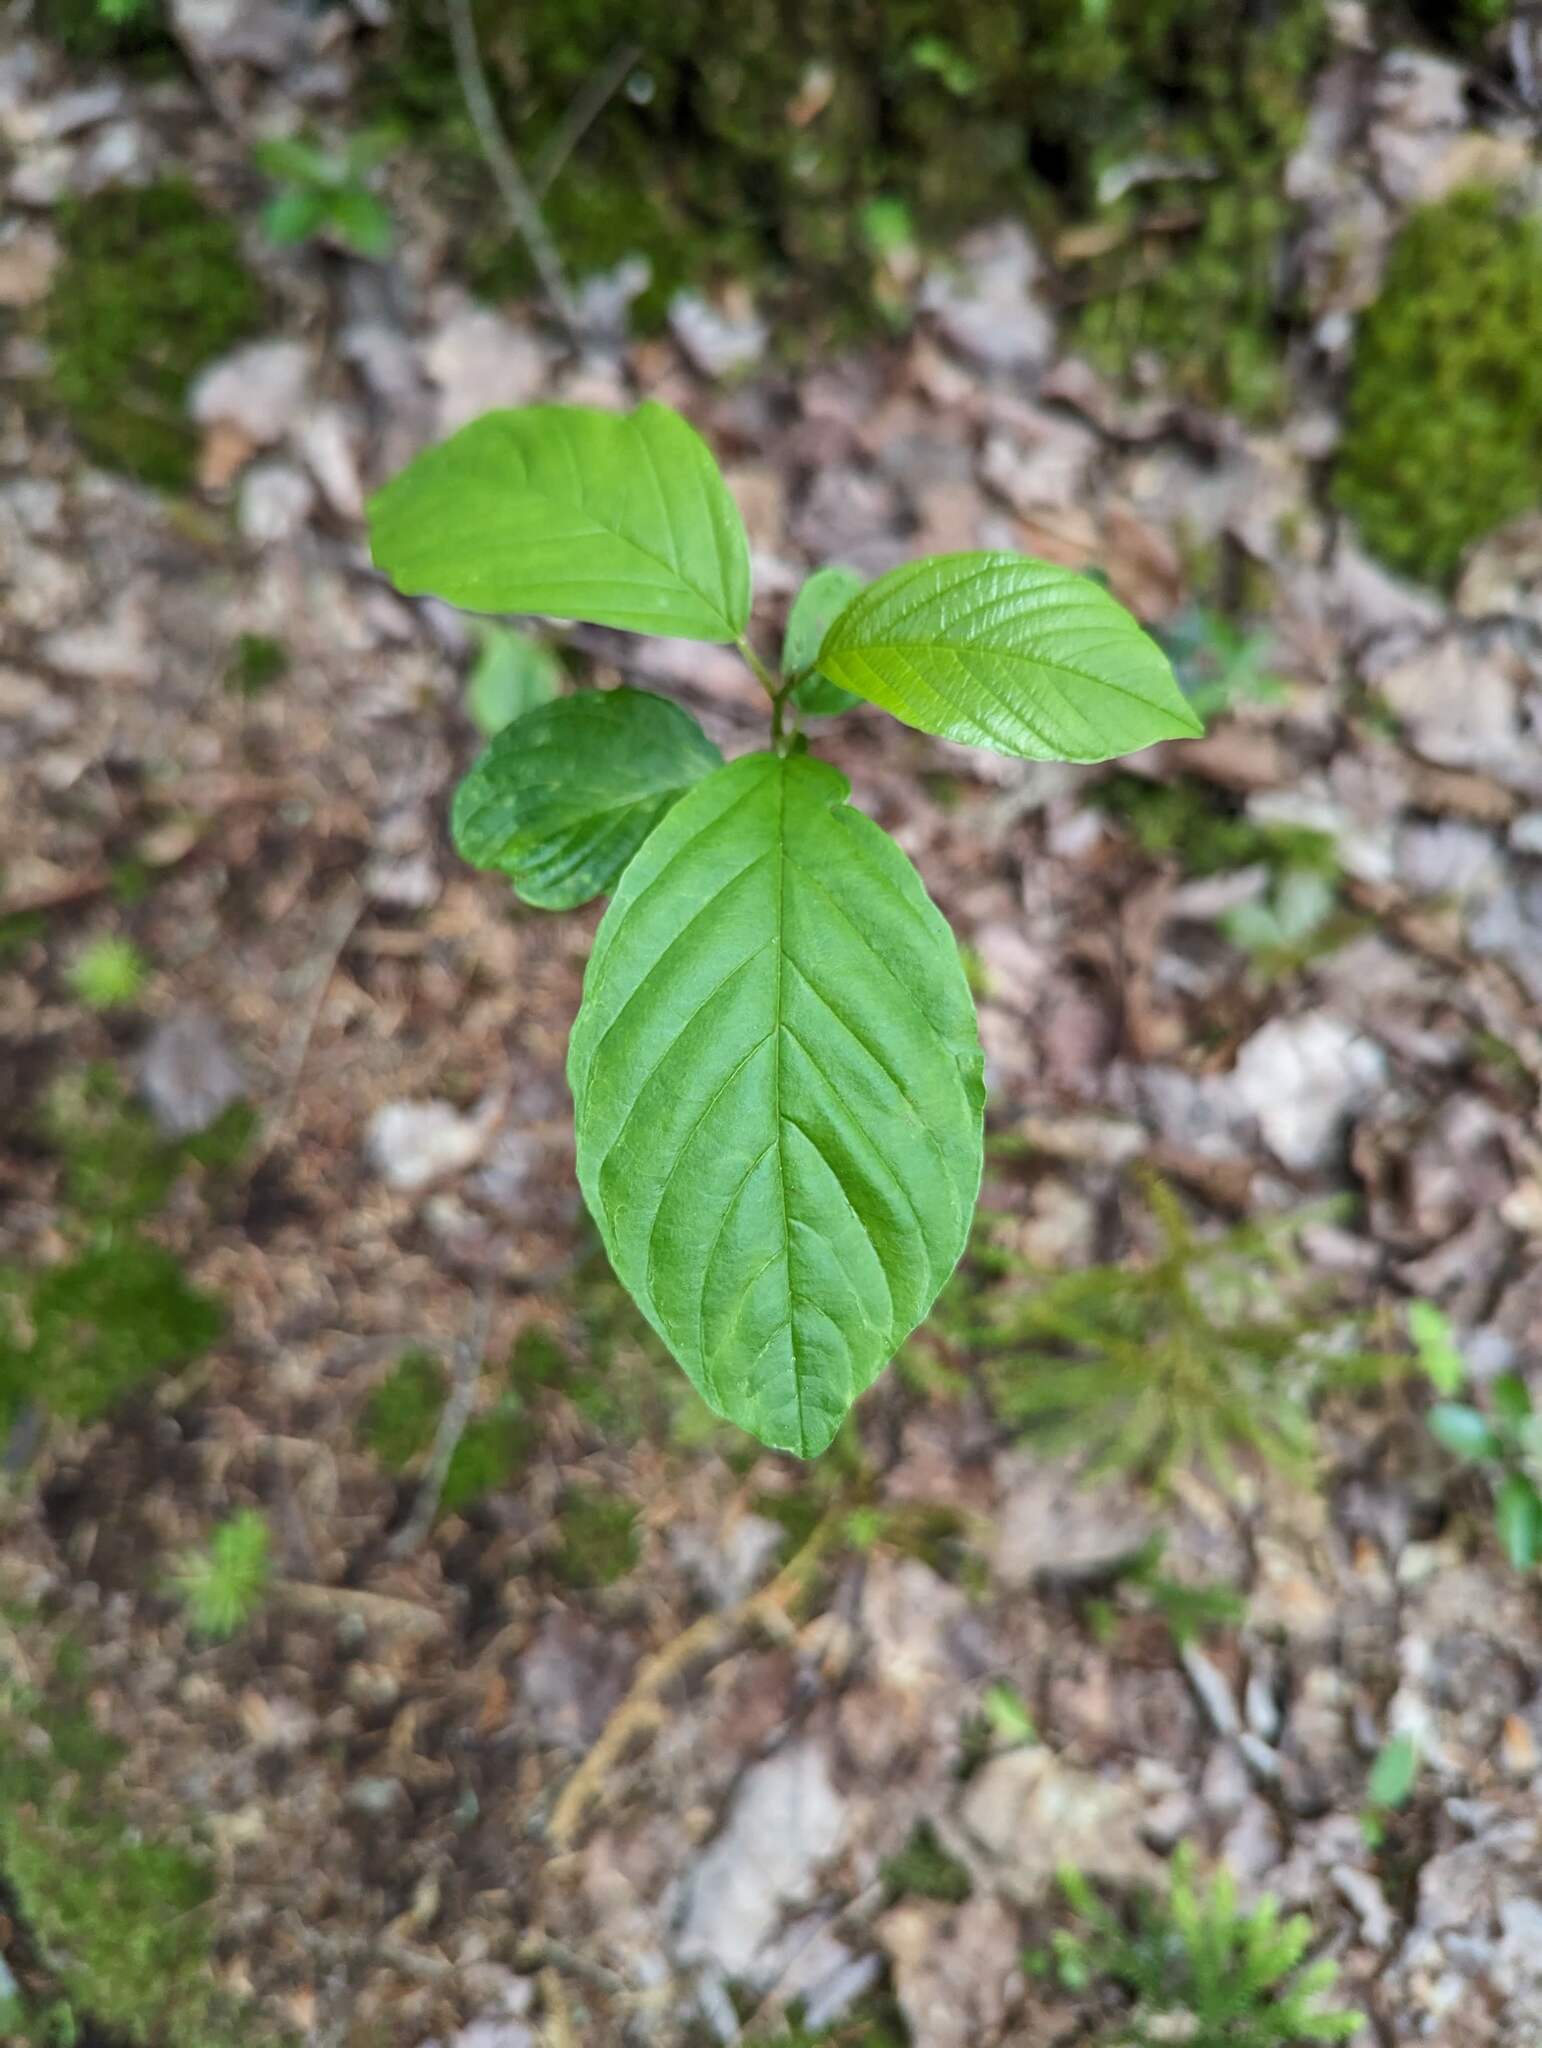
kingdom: Plantae
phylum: Tracheophyta
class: Magnoliopsida
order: Rosales
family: Rhamnaceae
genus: Frangula
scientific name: Frangula alnus
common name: Alder buckthorn
